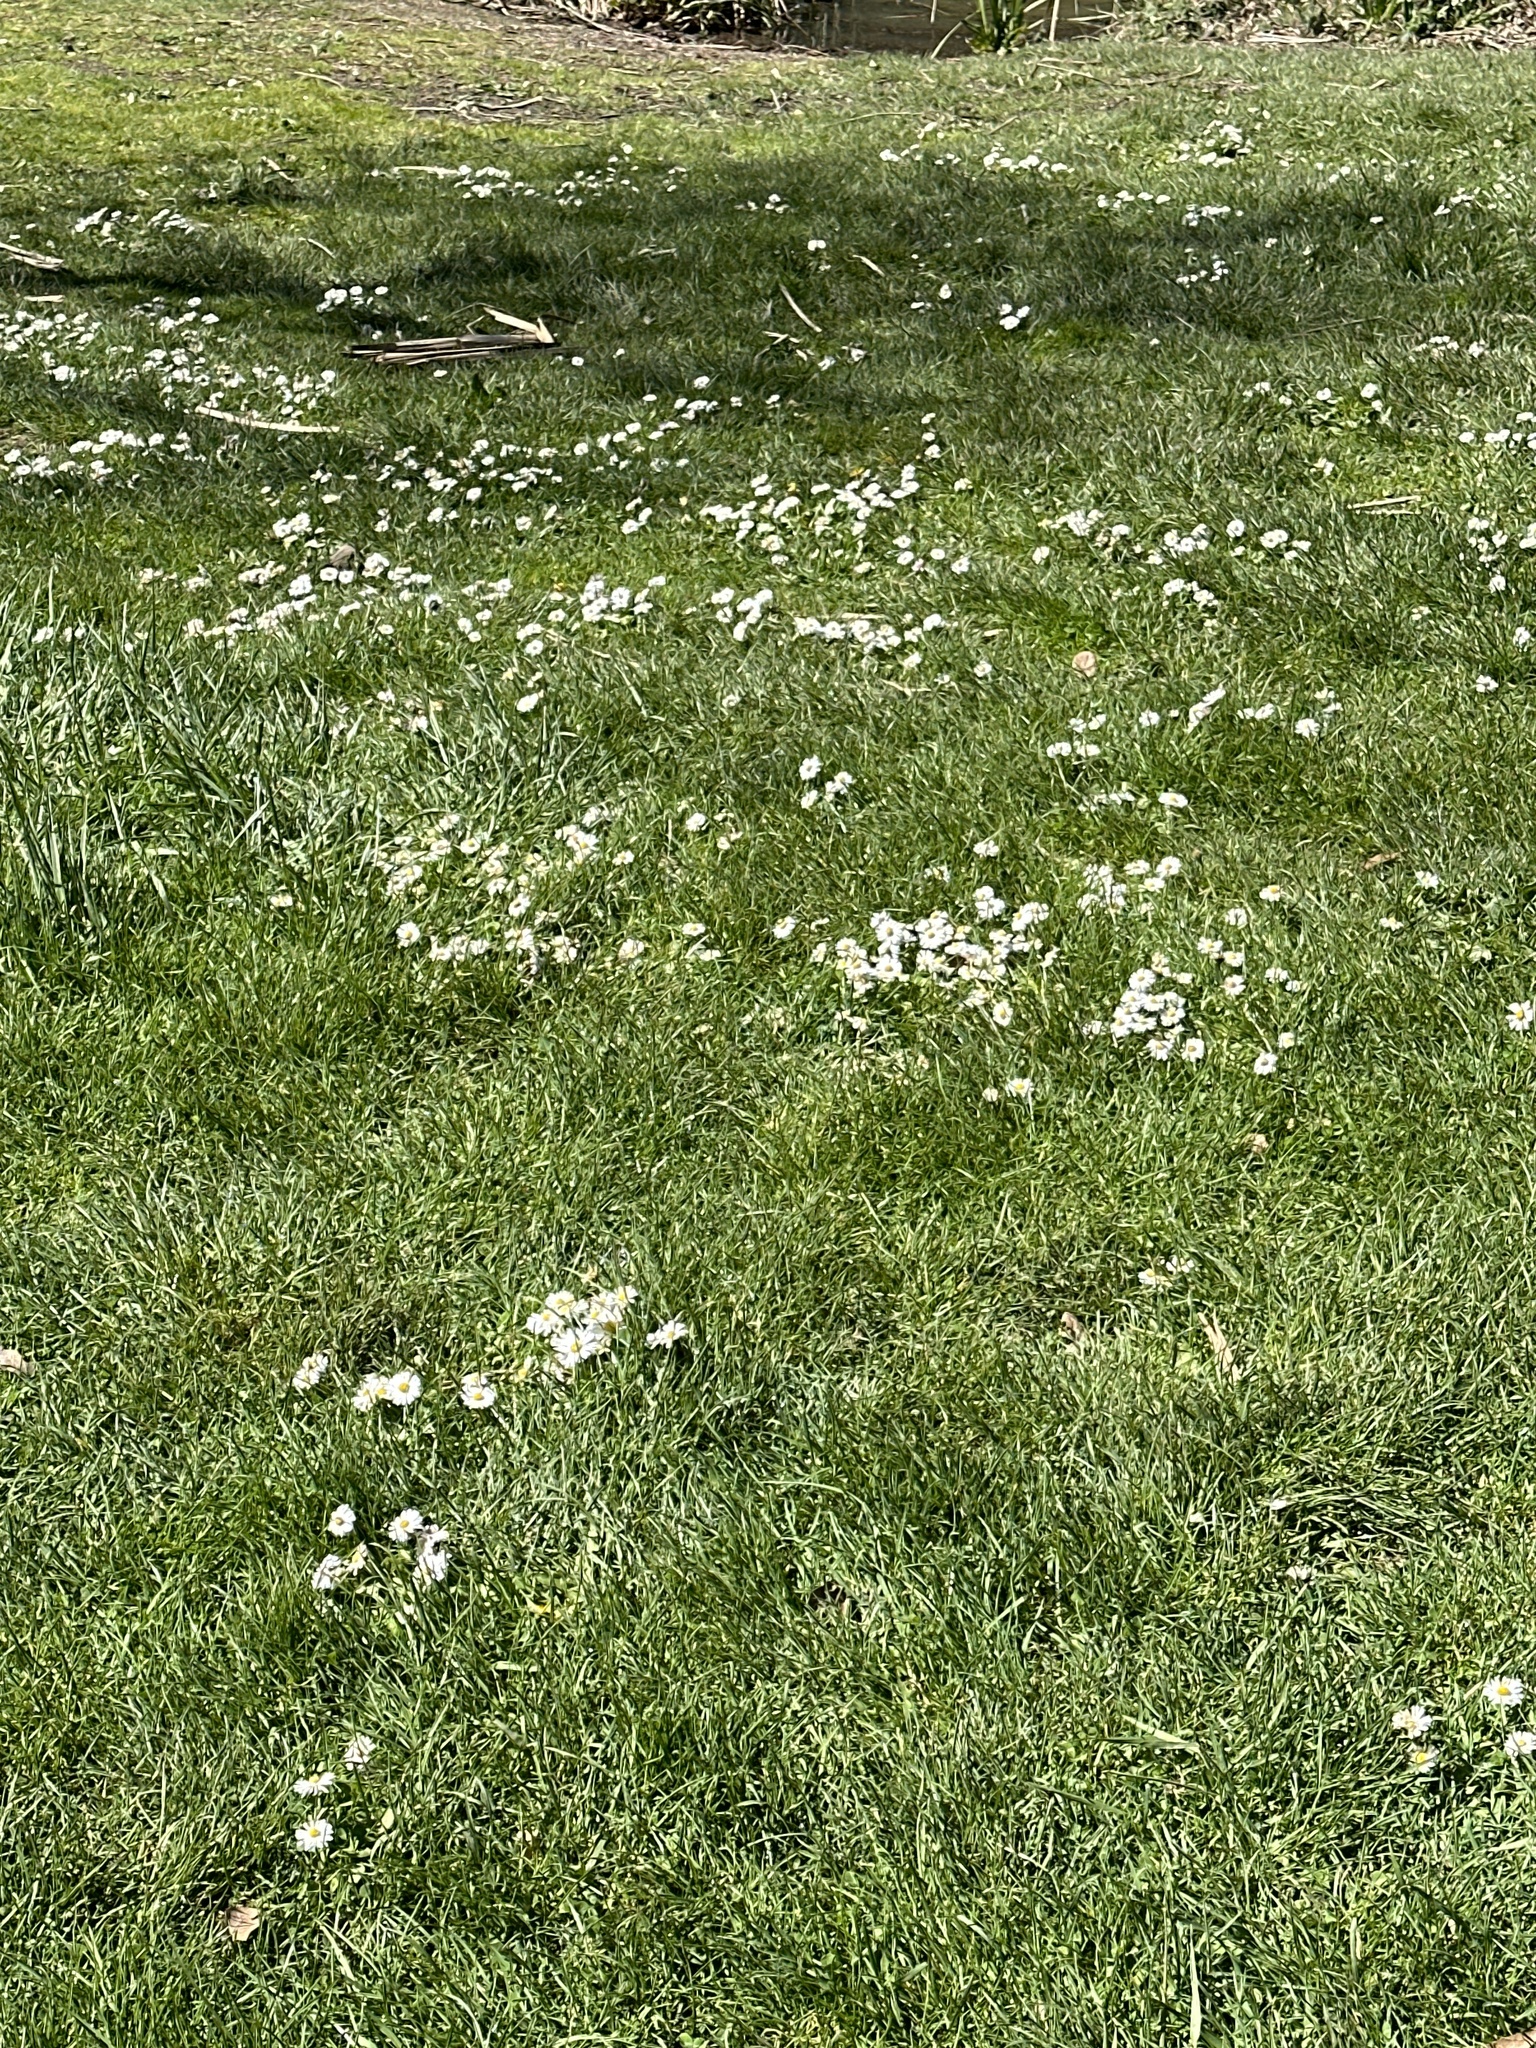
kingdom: Plantae
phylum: Tracheophyta
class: Magnoliopsida
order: Asterales
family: Asteraceae
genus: Bellis
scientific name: Bellis perennis
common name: Lawndaisy
